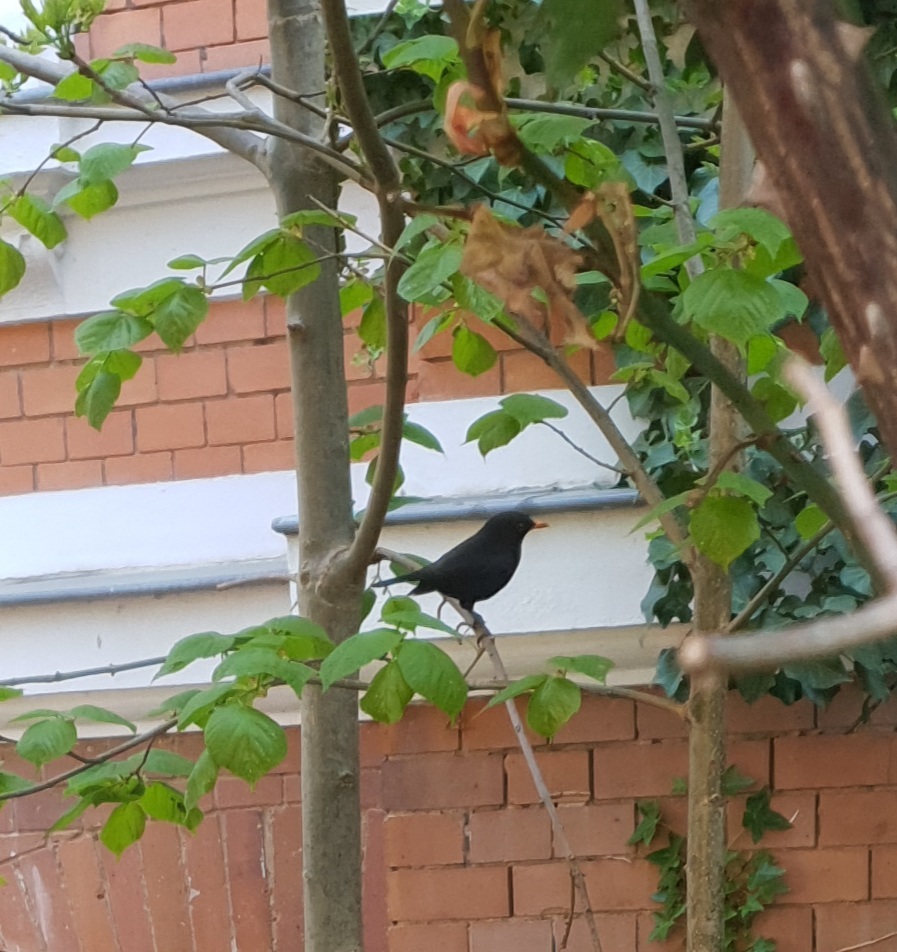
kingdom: Animalia
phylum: Chordata
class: Aves
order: Passeriformes
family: Turdidae
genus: Turdus
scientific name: Turdus merula
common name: Common blackbird
